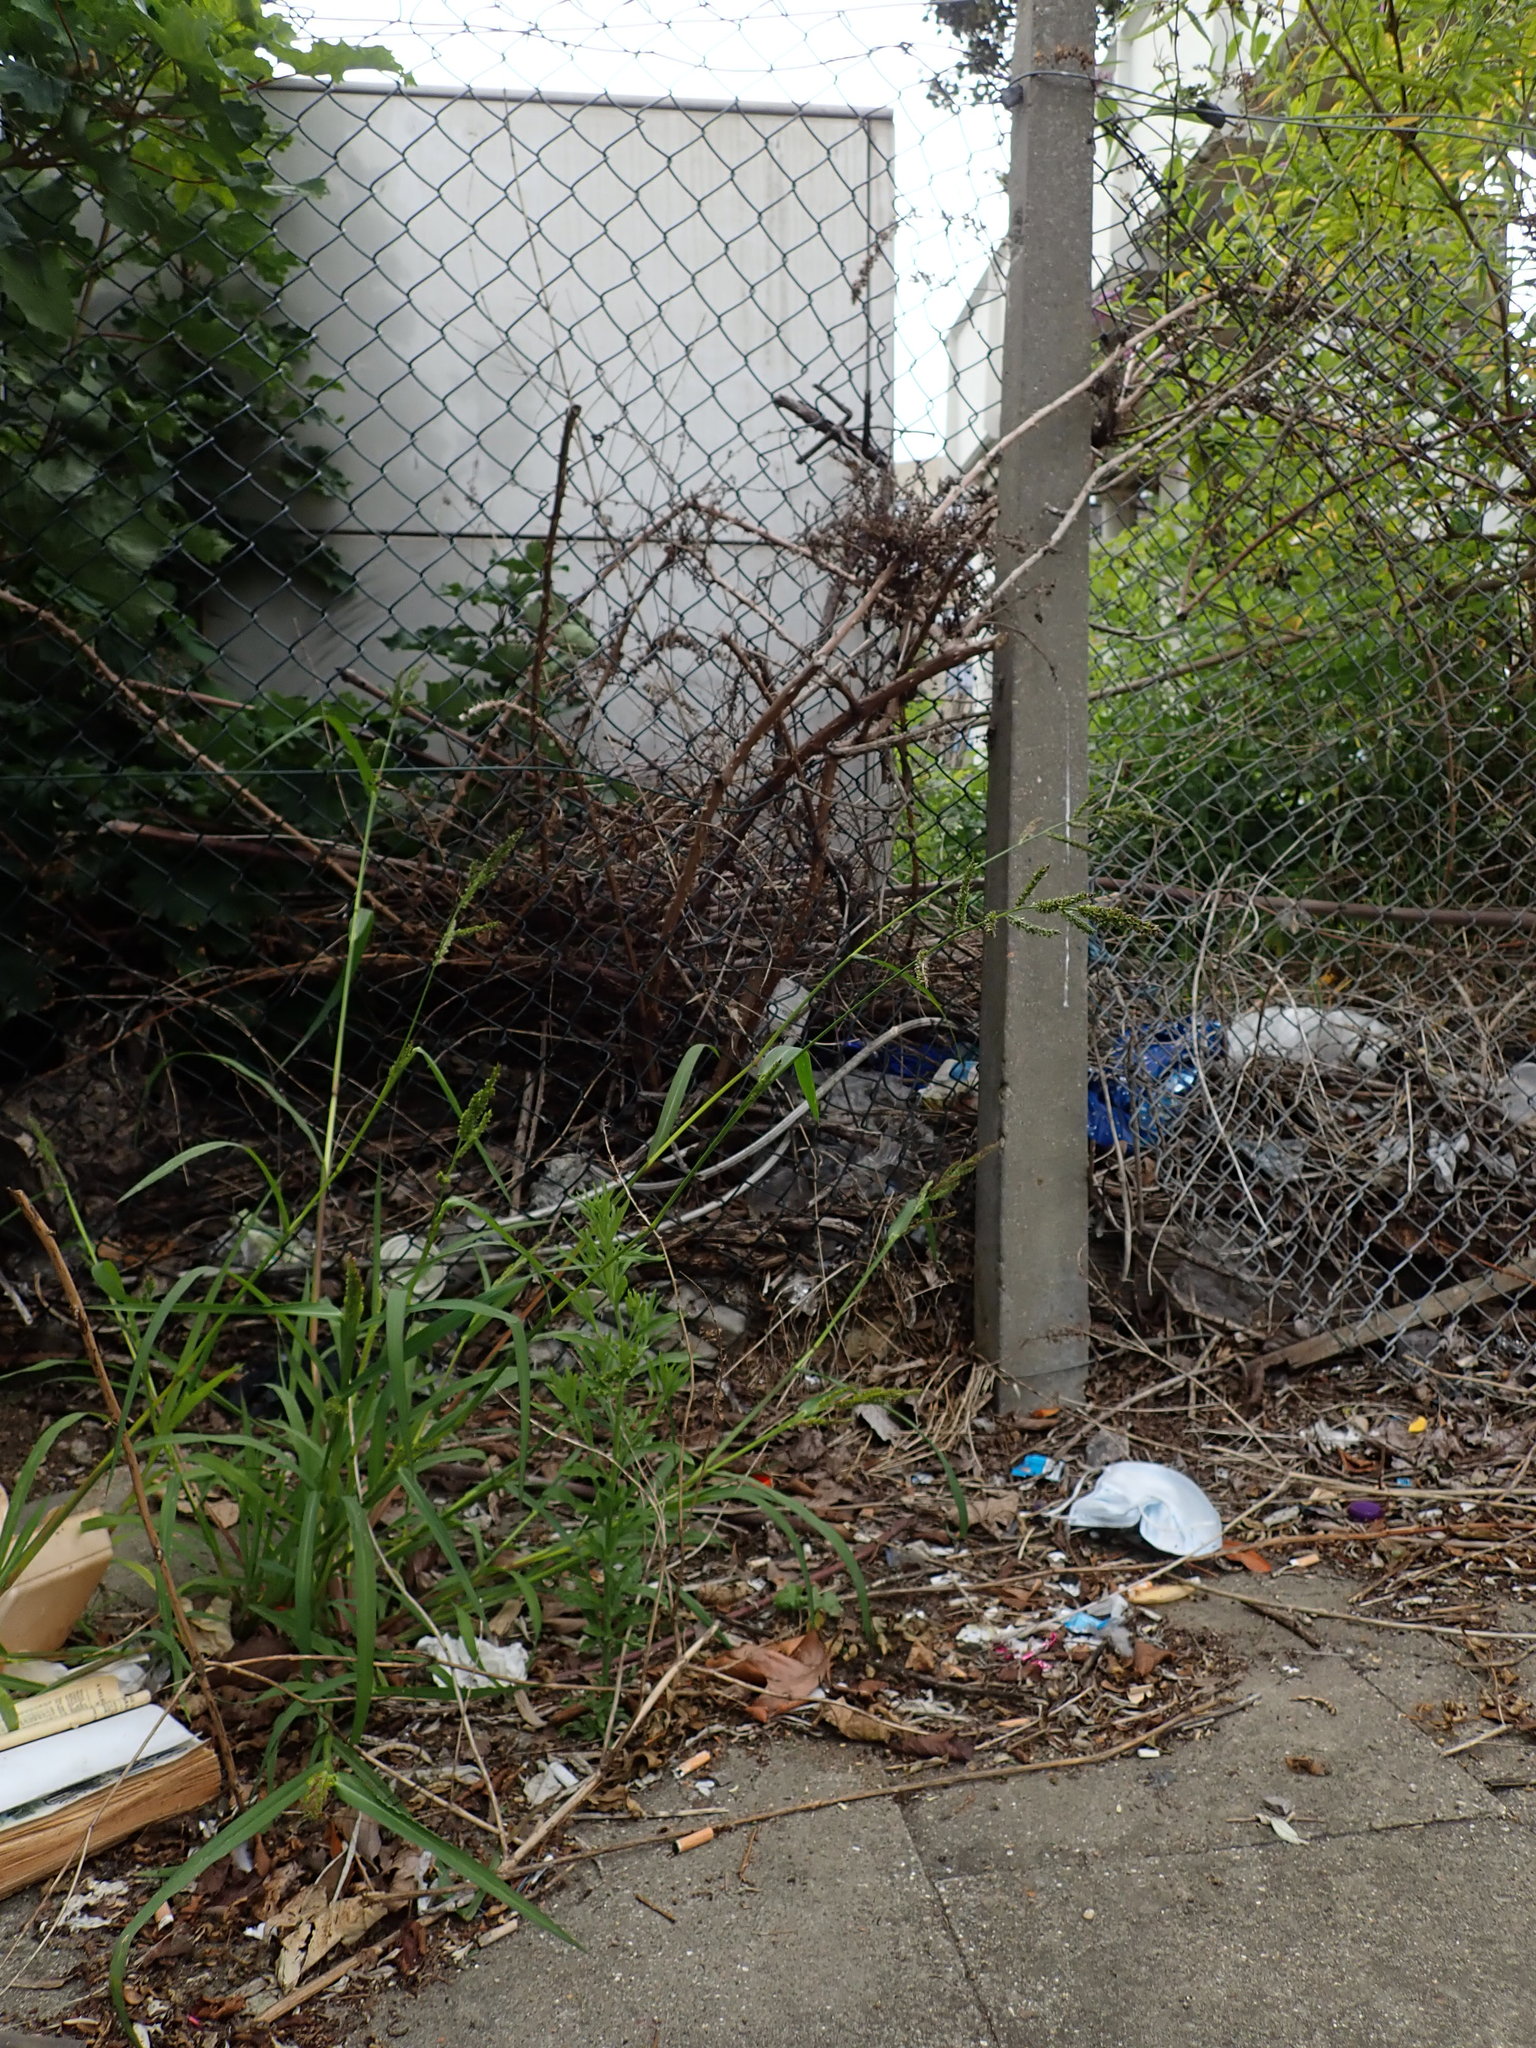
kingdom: Plantae
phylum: Tracheophyta
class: Liliopsida
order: Poales
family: Poaceae
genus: Echinochloa
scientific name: Echinochloa crus-galli
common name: Cockspur
